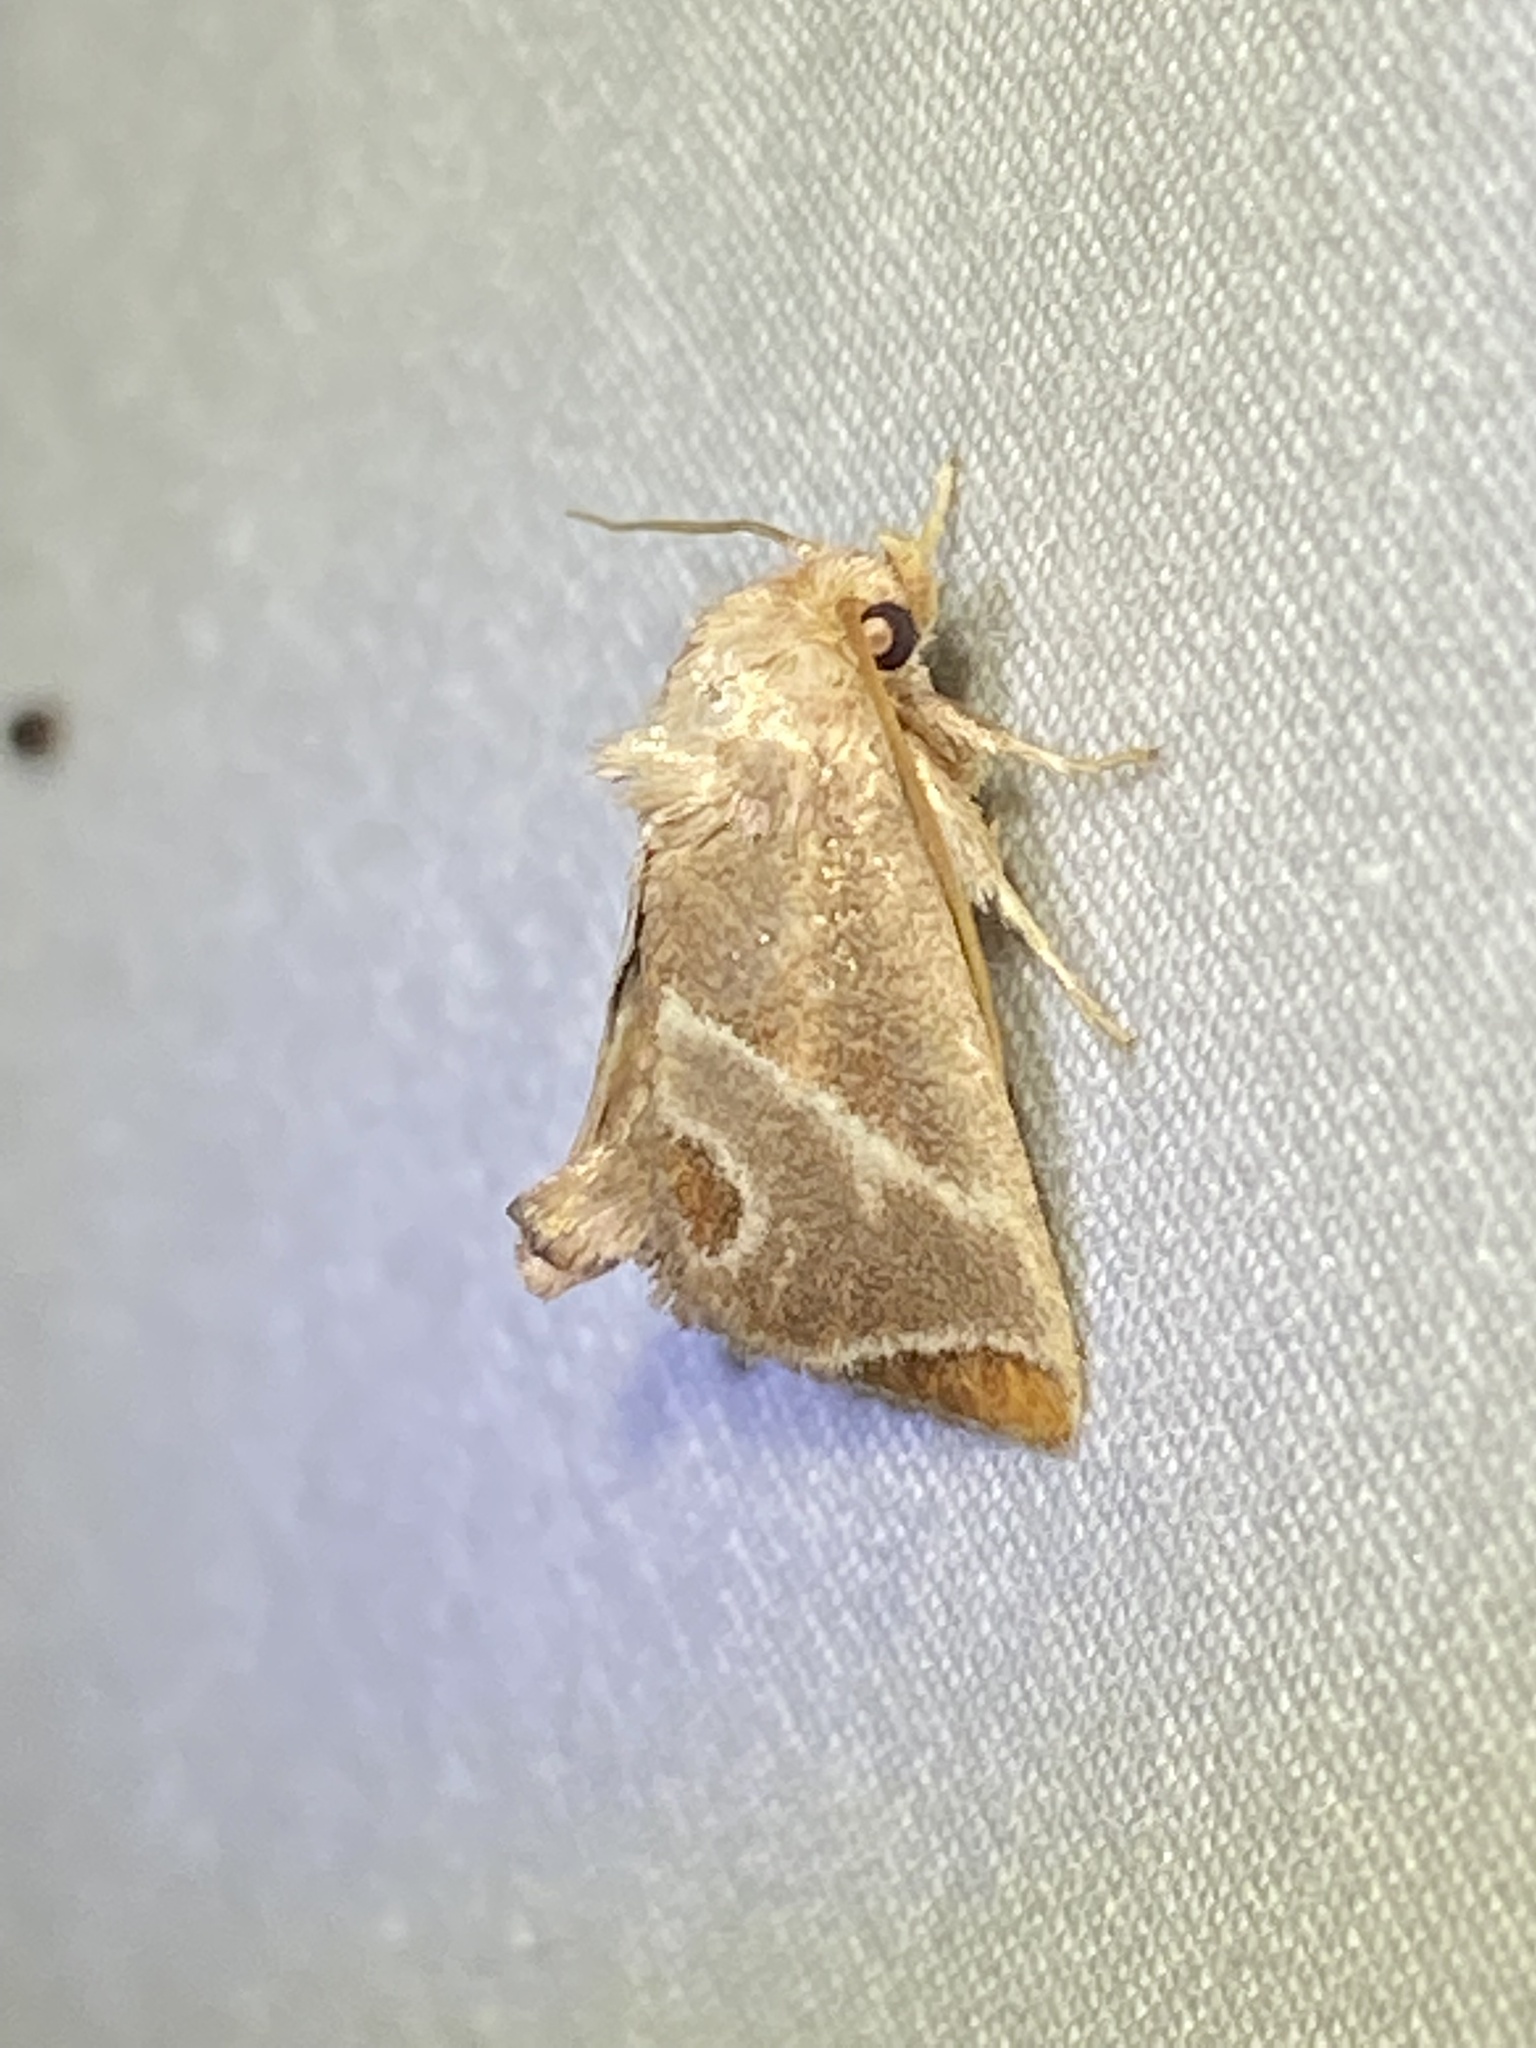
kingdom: Animalia
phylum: Arthropoda
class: Insecta
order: Lepidoptera
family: Limacodidae
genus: Apoda
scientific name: Apoda biguttata
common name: Shagreened slug moth
